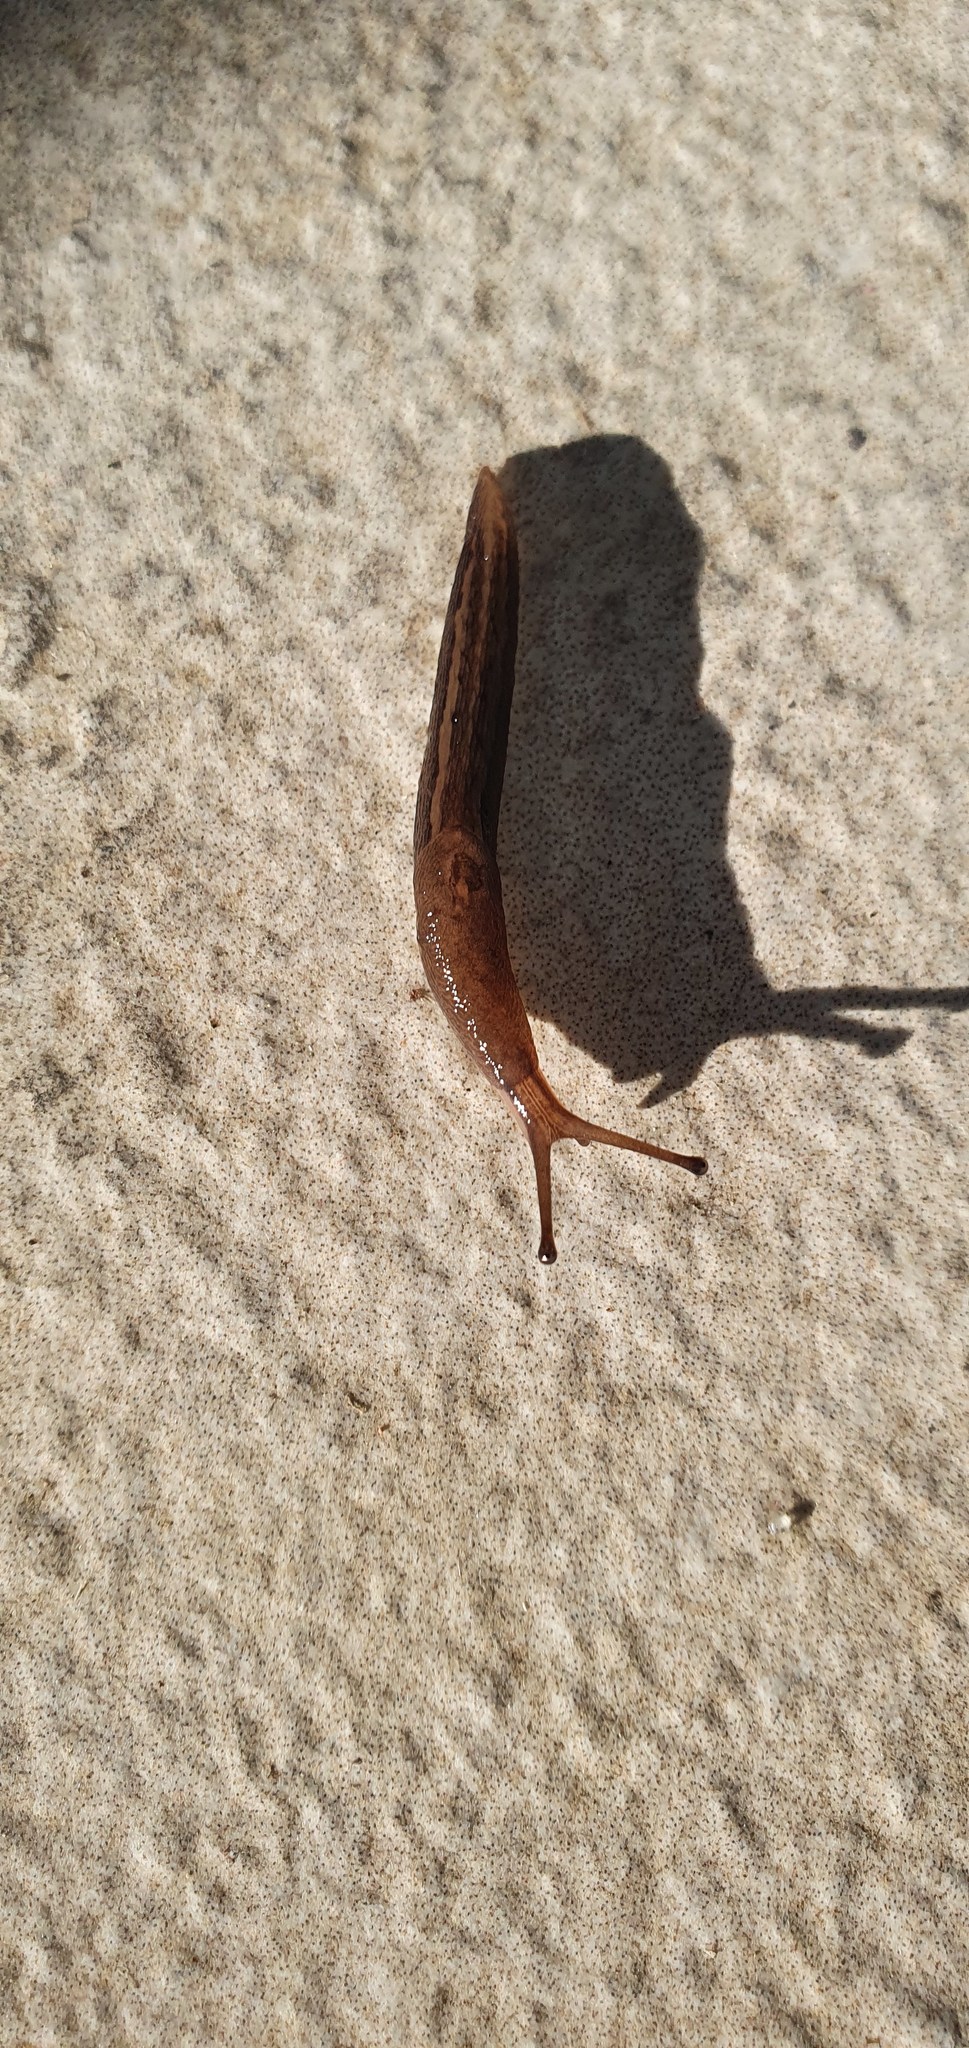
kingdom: Animalia
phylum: Mollusca
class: Gastropoda
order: Stylommatophora
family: Limacidae
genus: Limax
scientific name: Limax maximus
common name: Great grey slug
